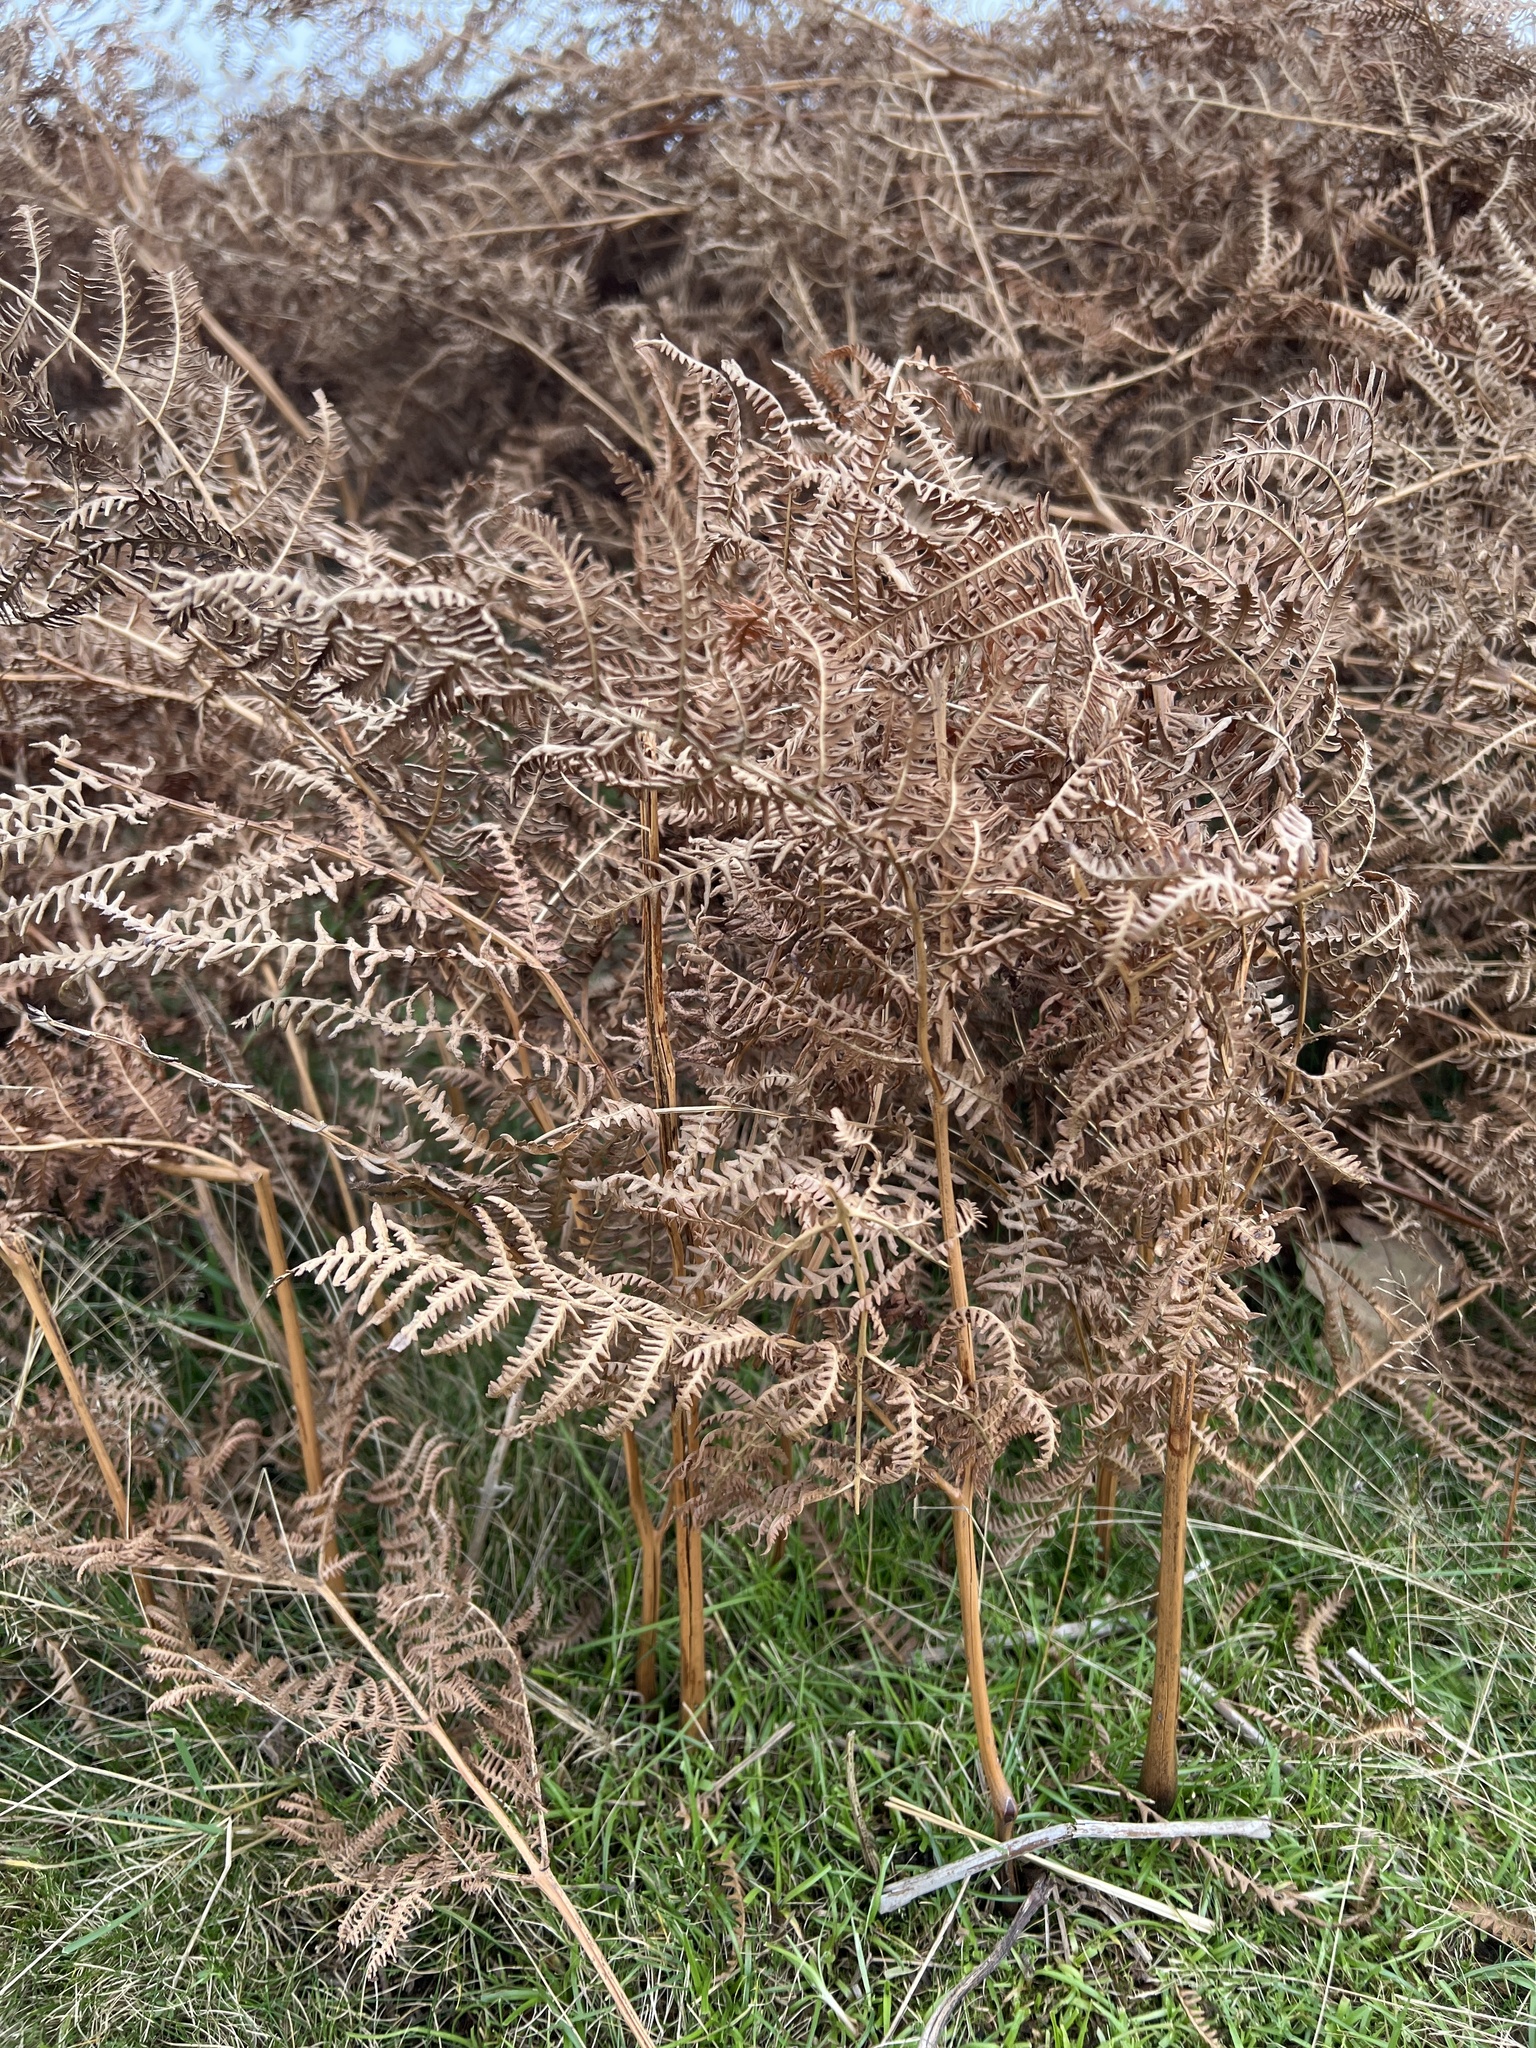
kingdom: Plantae
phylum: Tracheophyta
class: Polypodiopsida
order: Polypodiales
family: Dennstaedtiaceae
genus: Pteridium
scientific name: Pteridium aquilinum
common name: Bracken
